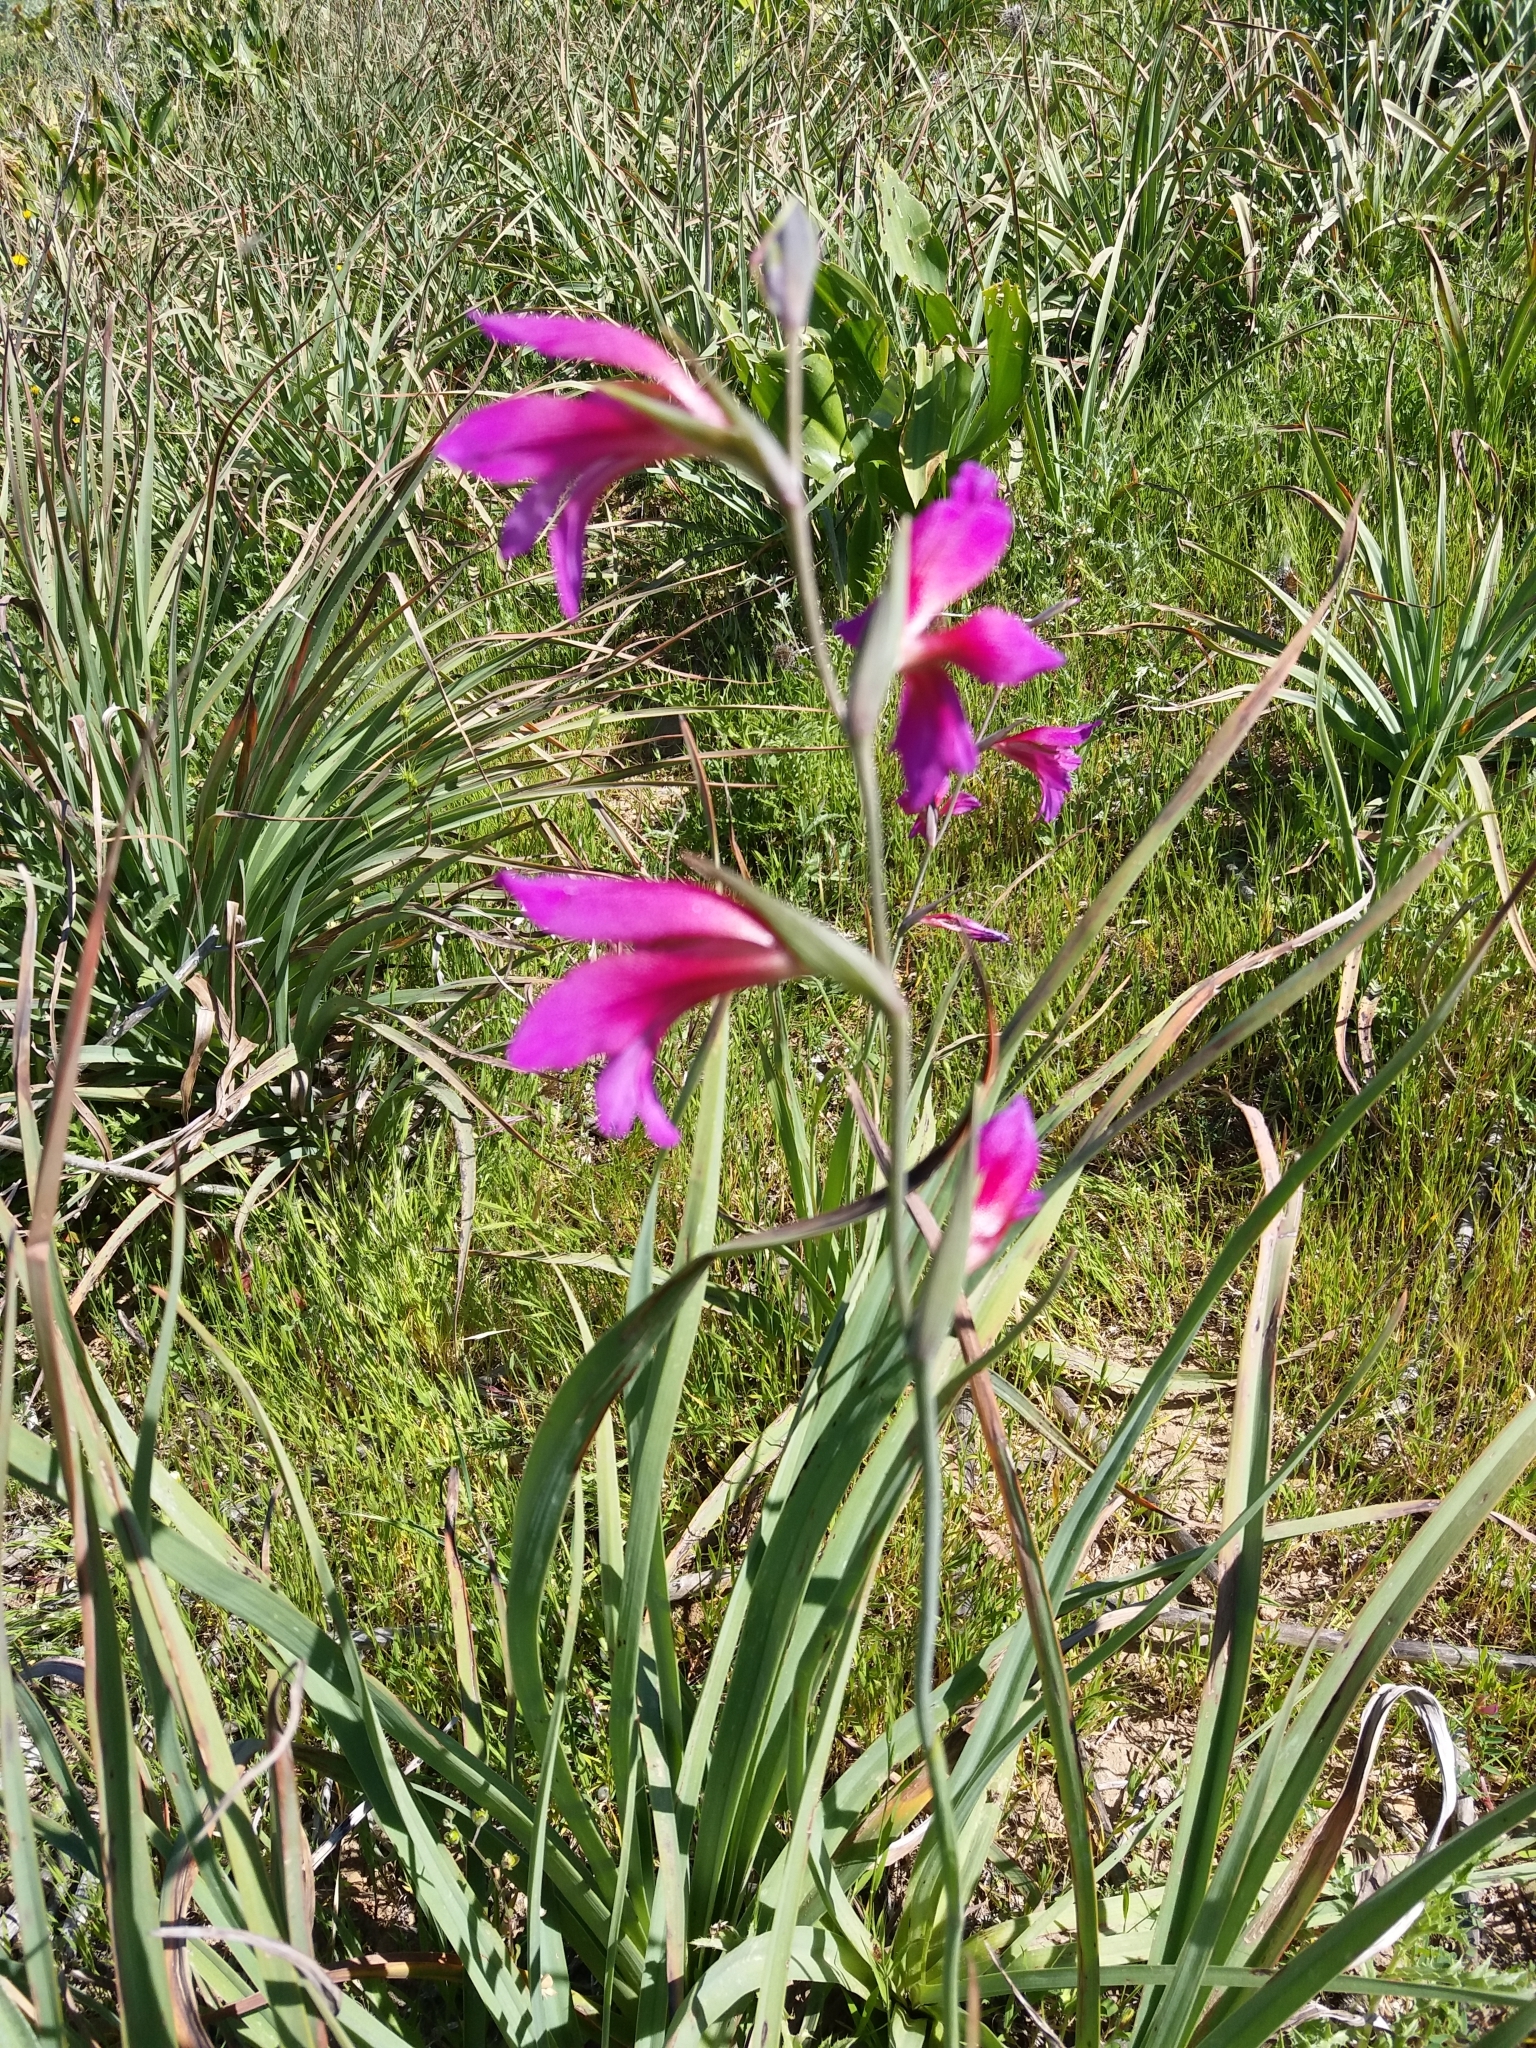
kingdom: Plantae
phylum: Tracheophyta
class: Liliopsida
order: Asparagales
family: Iridaceae
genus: Gladiolus
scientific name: Gladiolus italicus
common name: Field gladiolus
